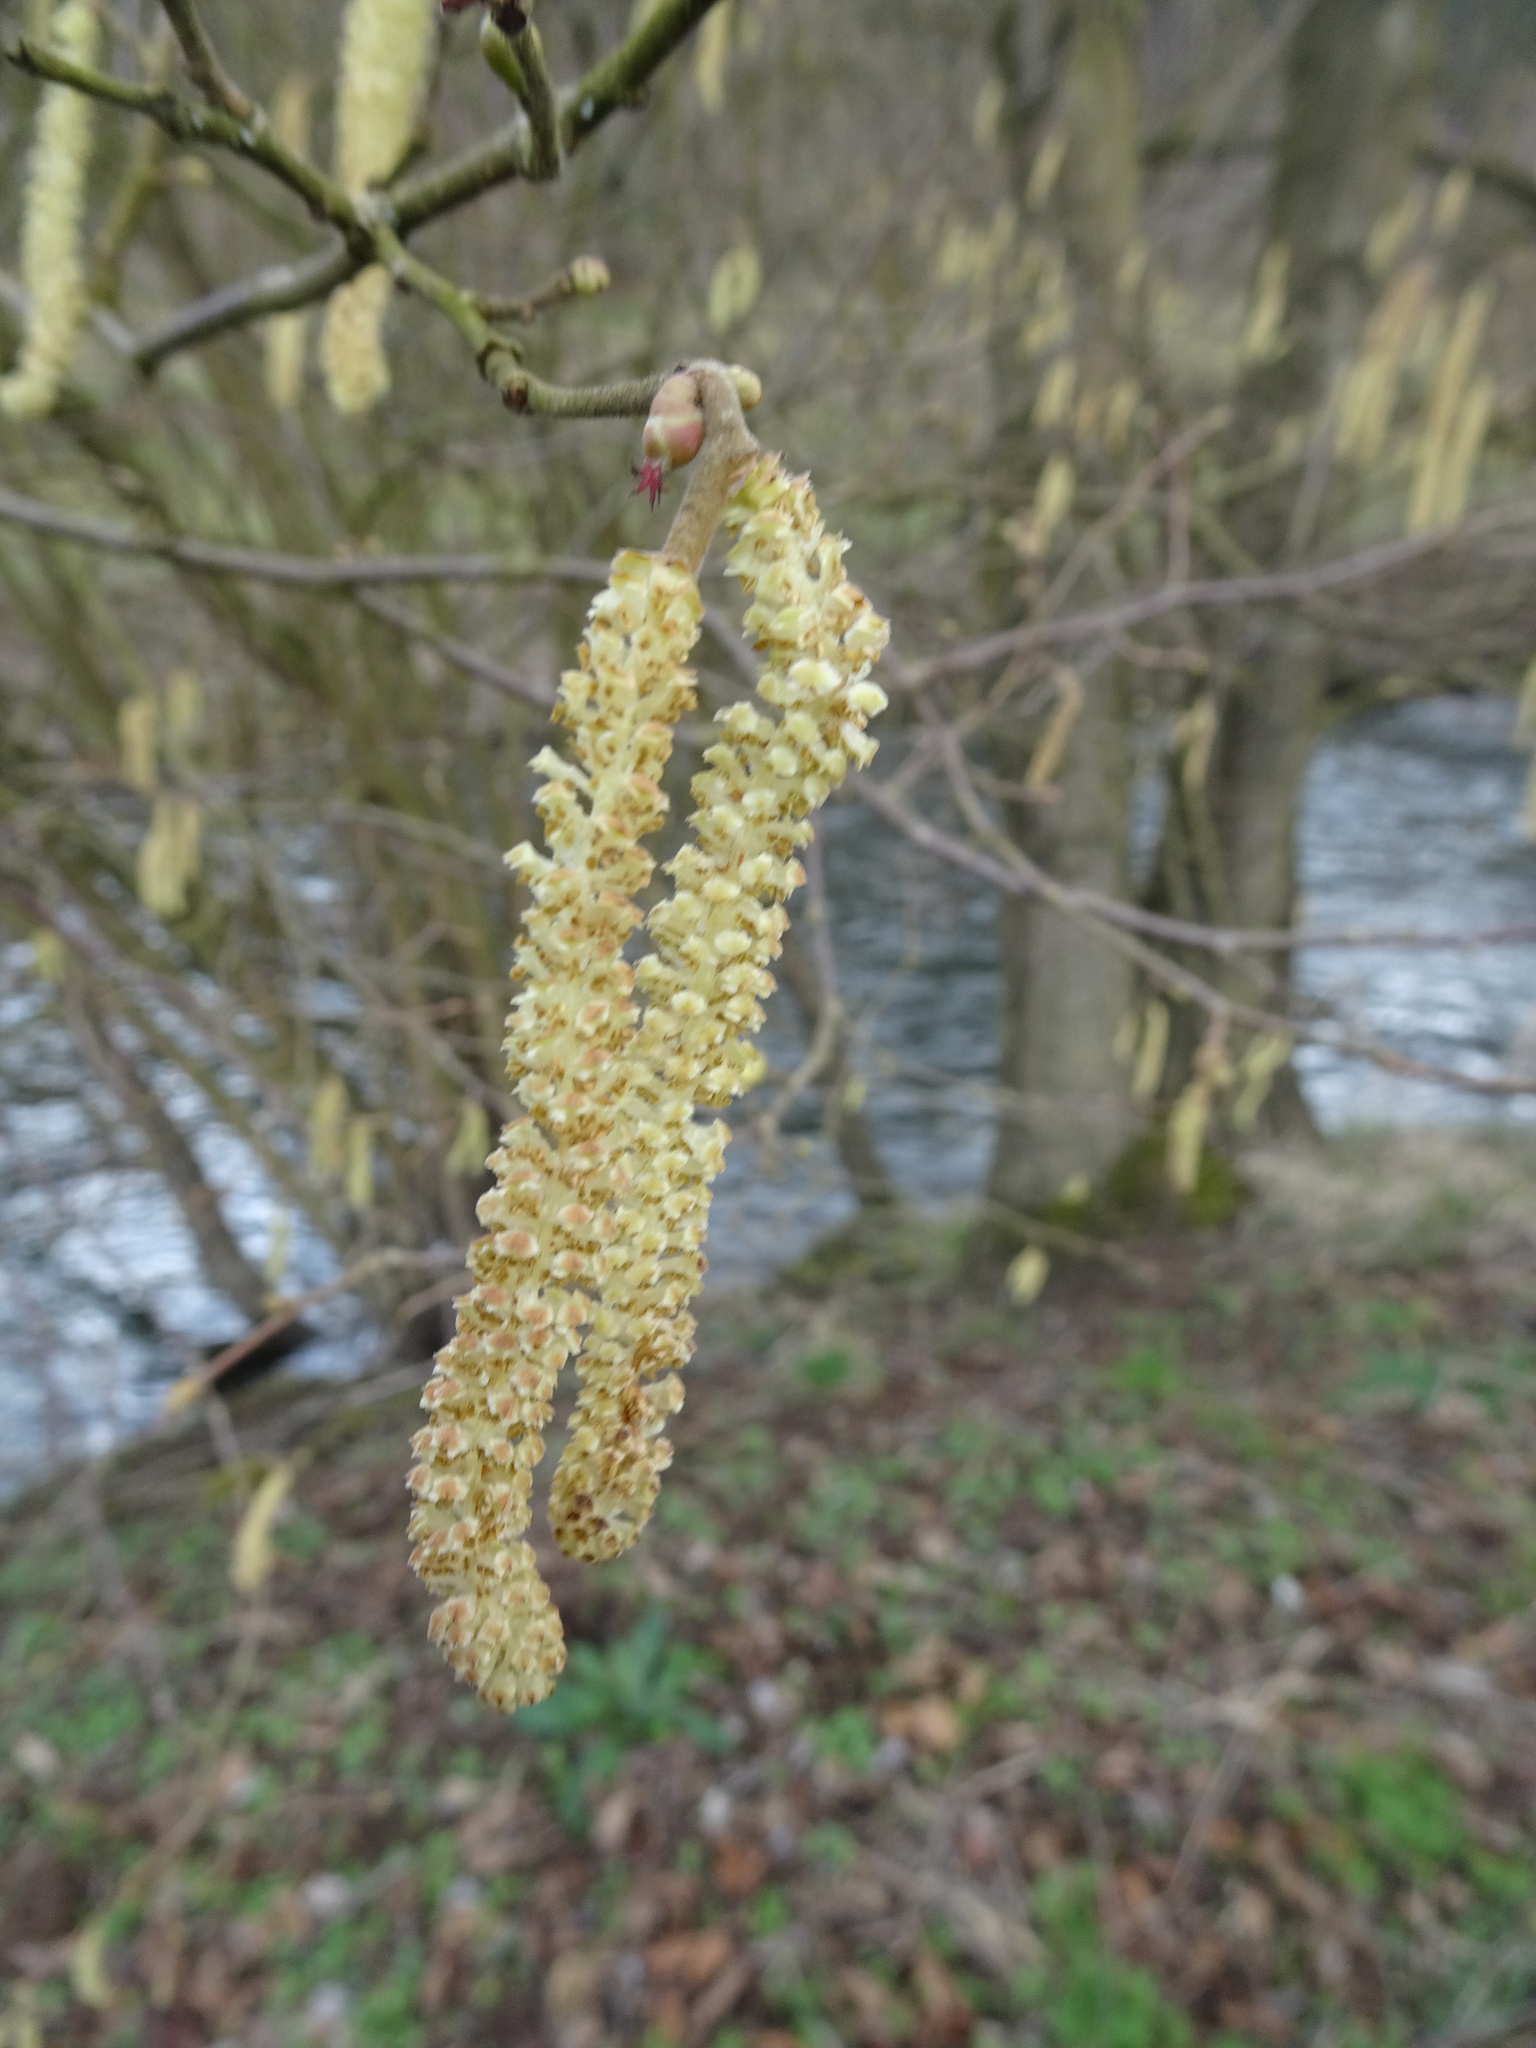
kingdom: Plantae
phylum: Tracheophyta
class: Magnoliopsida
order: Fagales
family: Betulaceae
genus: Corylus
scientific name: Corylus avellana
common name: European hazel
